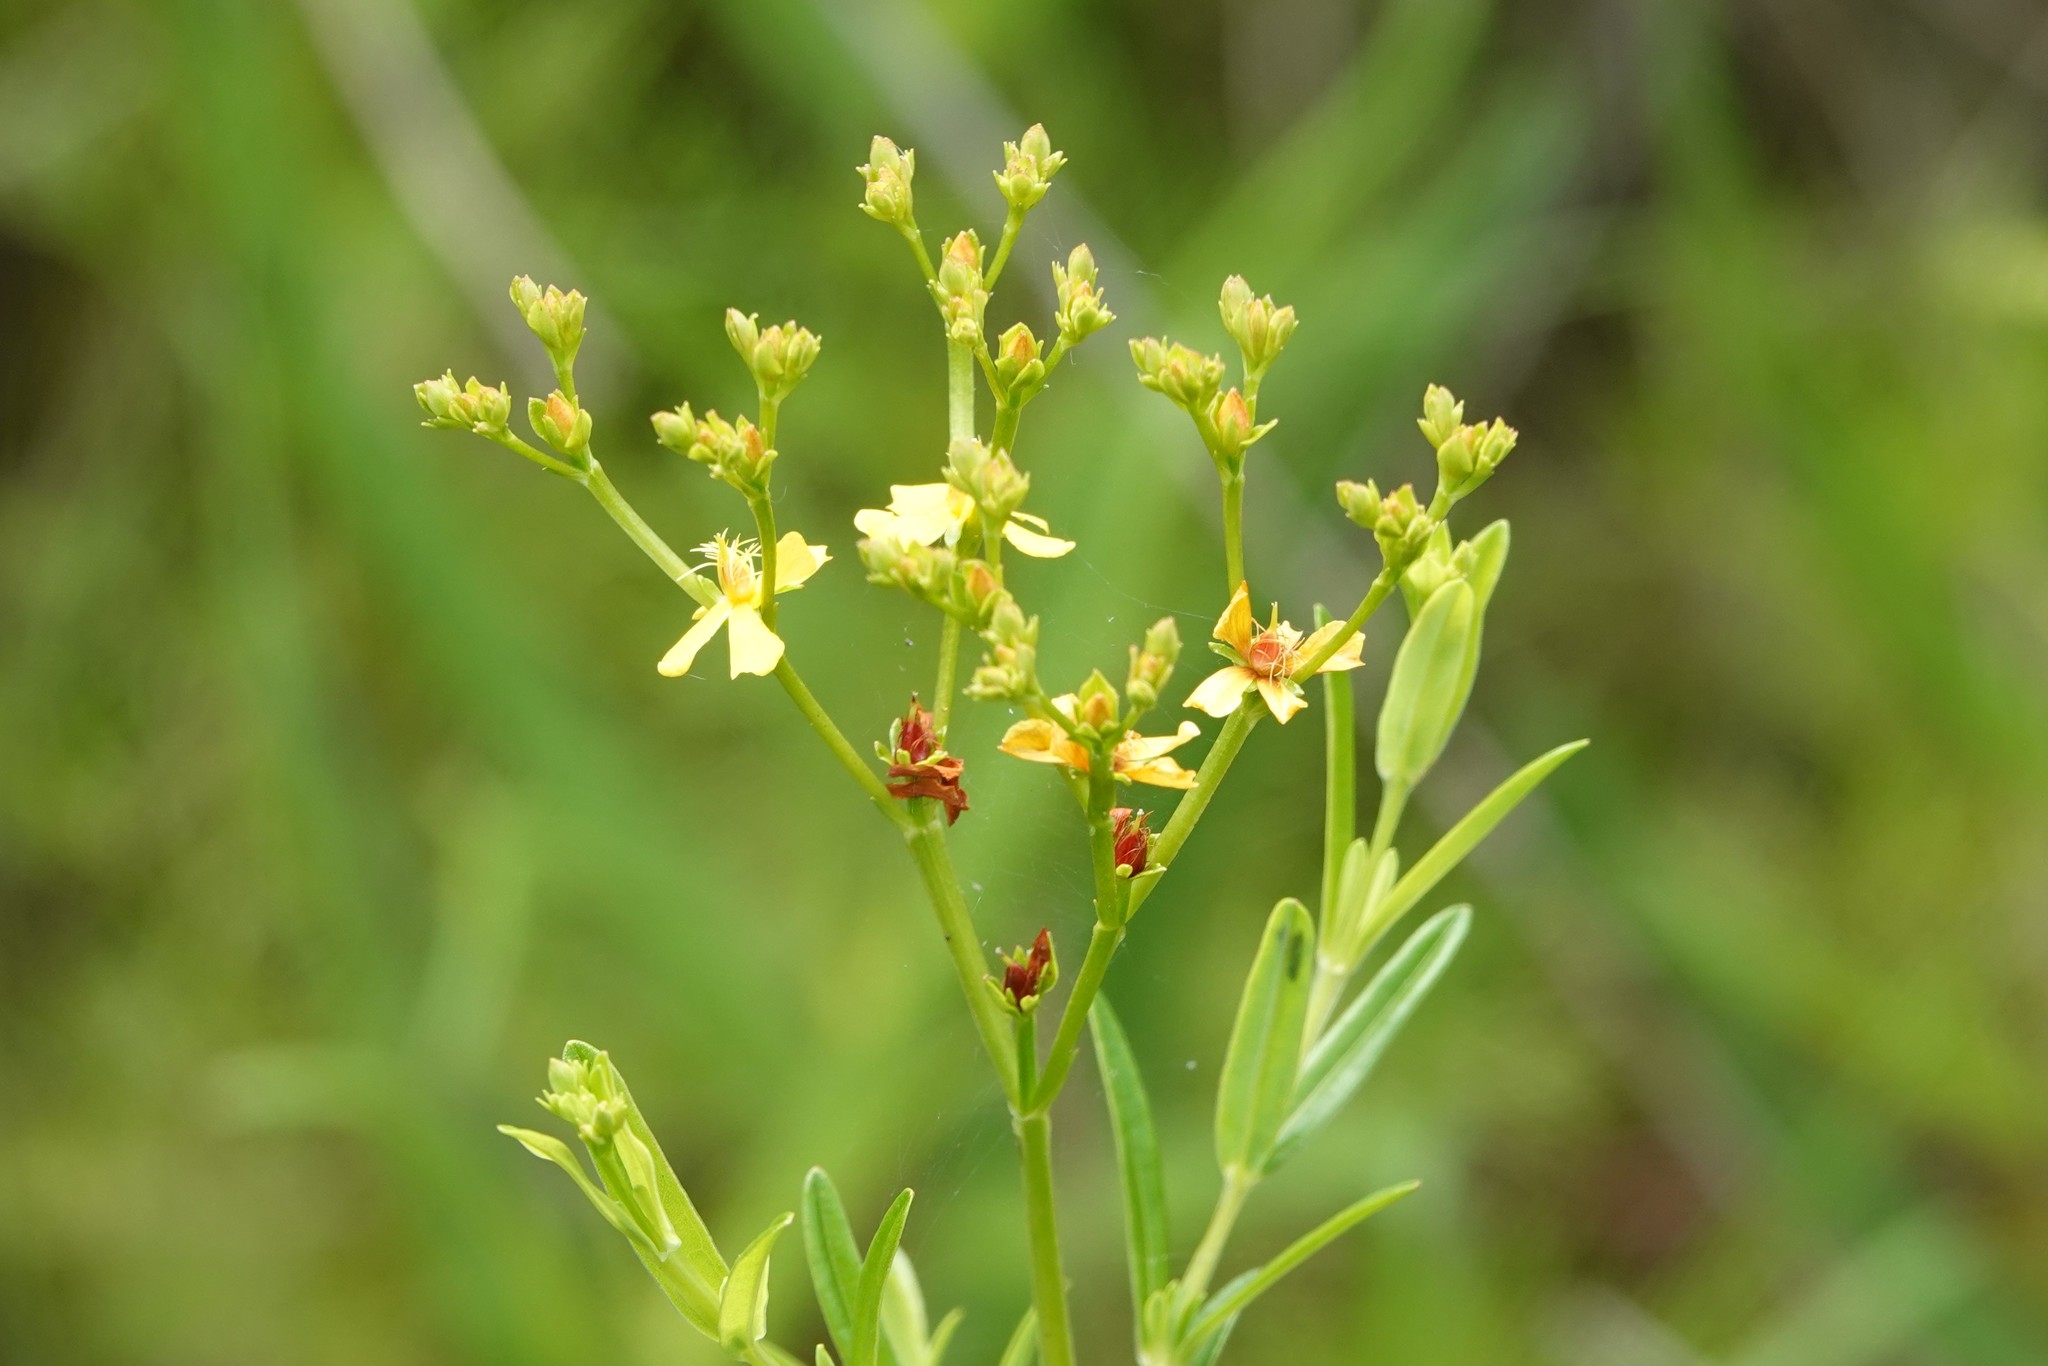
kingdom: Plantae
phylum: Tracheophyta
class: Magnoliopsida
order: Malpighiales
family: Hypericaceae
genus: Hypericum
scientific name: Hypericum cistifolium
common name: Round-pod st. john's-wort
